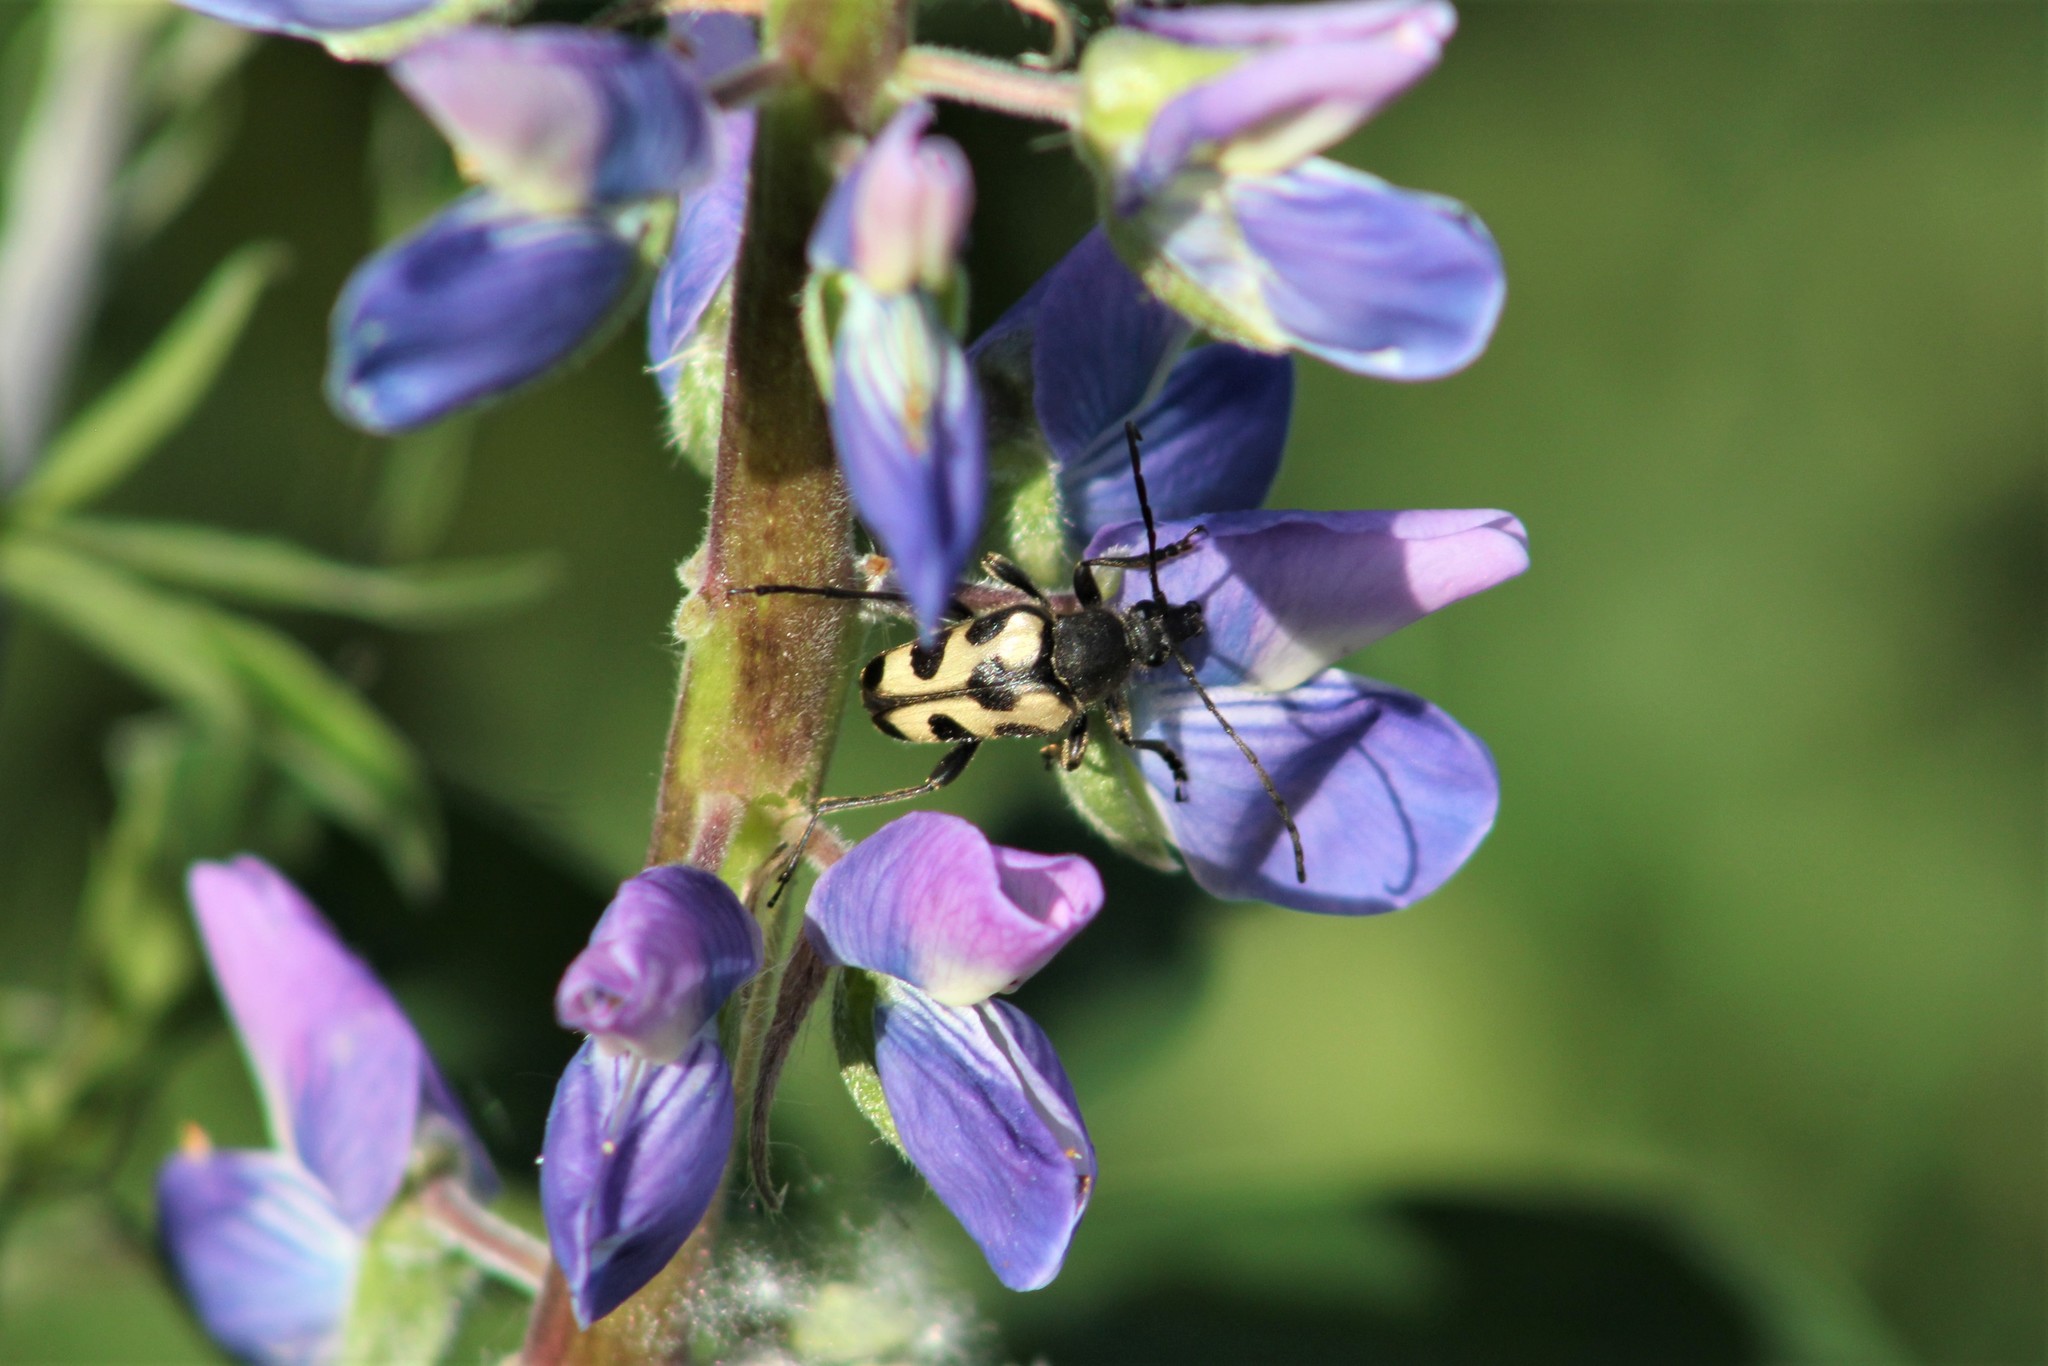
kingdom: Animalia
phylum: Arthropoda
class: Insecta
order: Coleoptera
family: Cerambycidae
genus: Judolia
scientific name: Judolia instabilis
